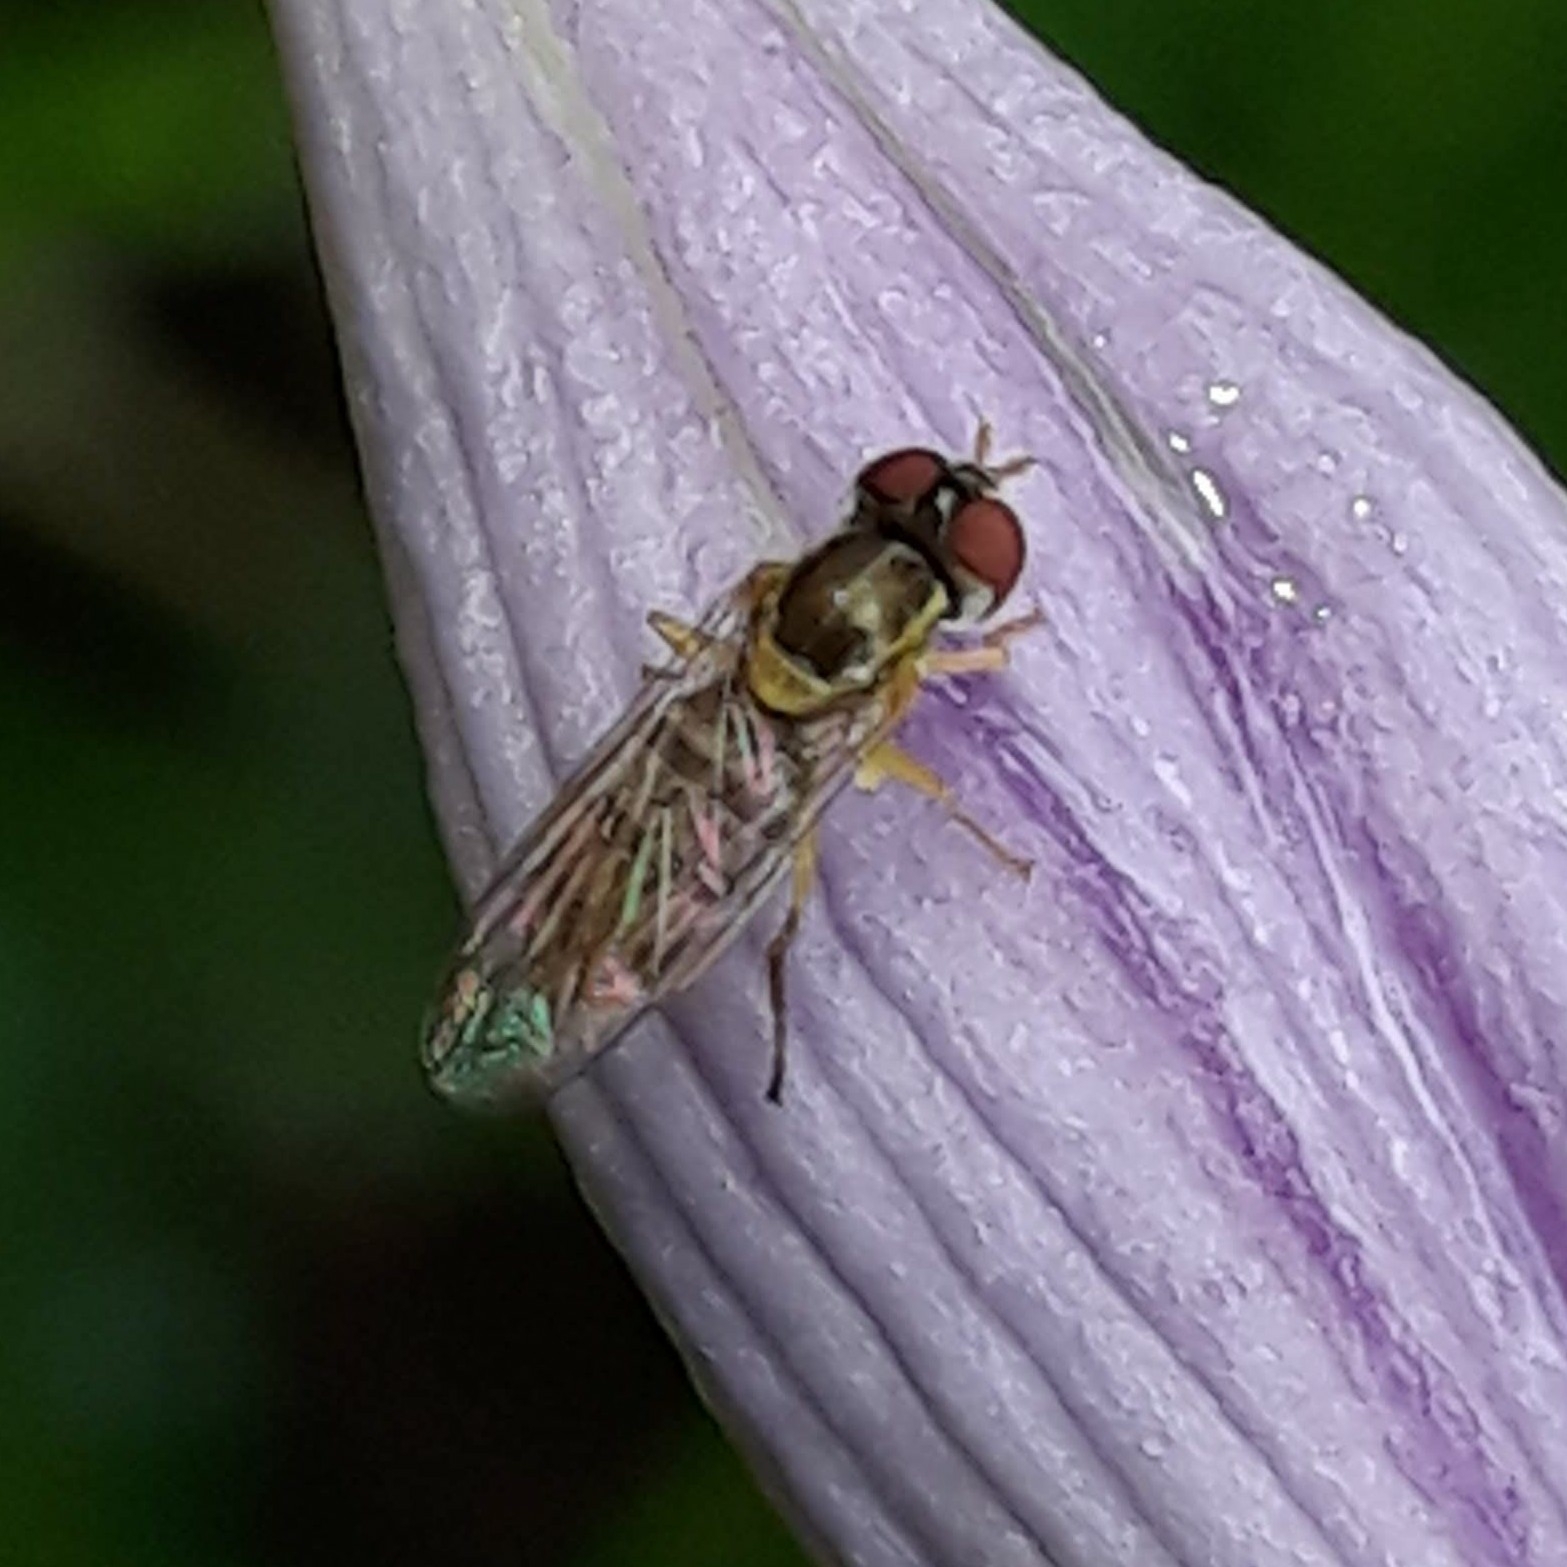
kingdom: Animalia
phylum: Arthropoda
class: Insecta
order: Diptera
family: Syrphidae
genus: Toxomerus
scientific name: Toxomerus marginatus
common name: Syrphid fly
